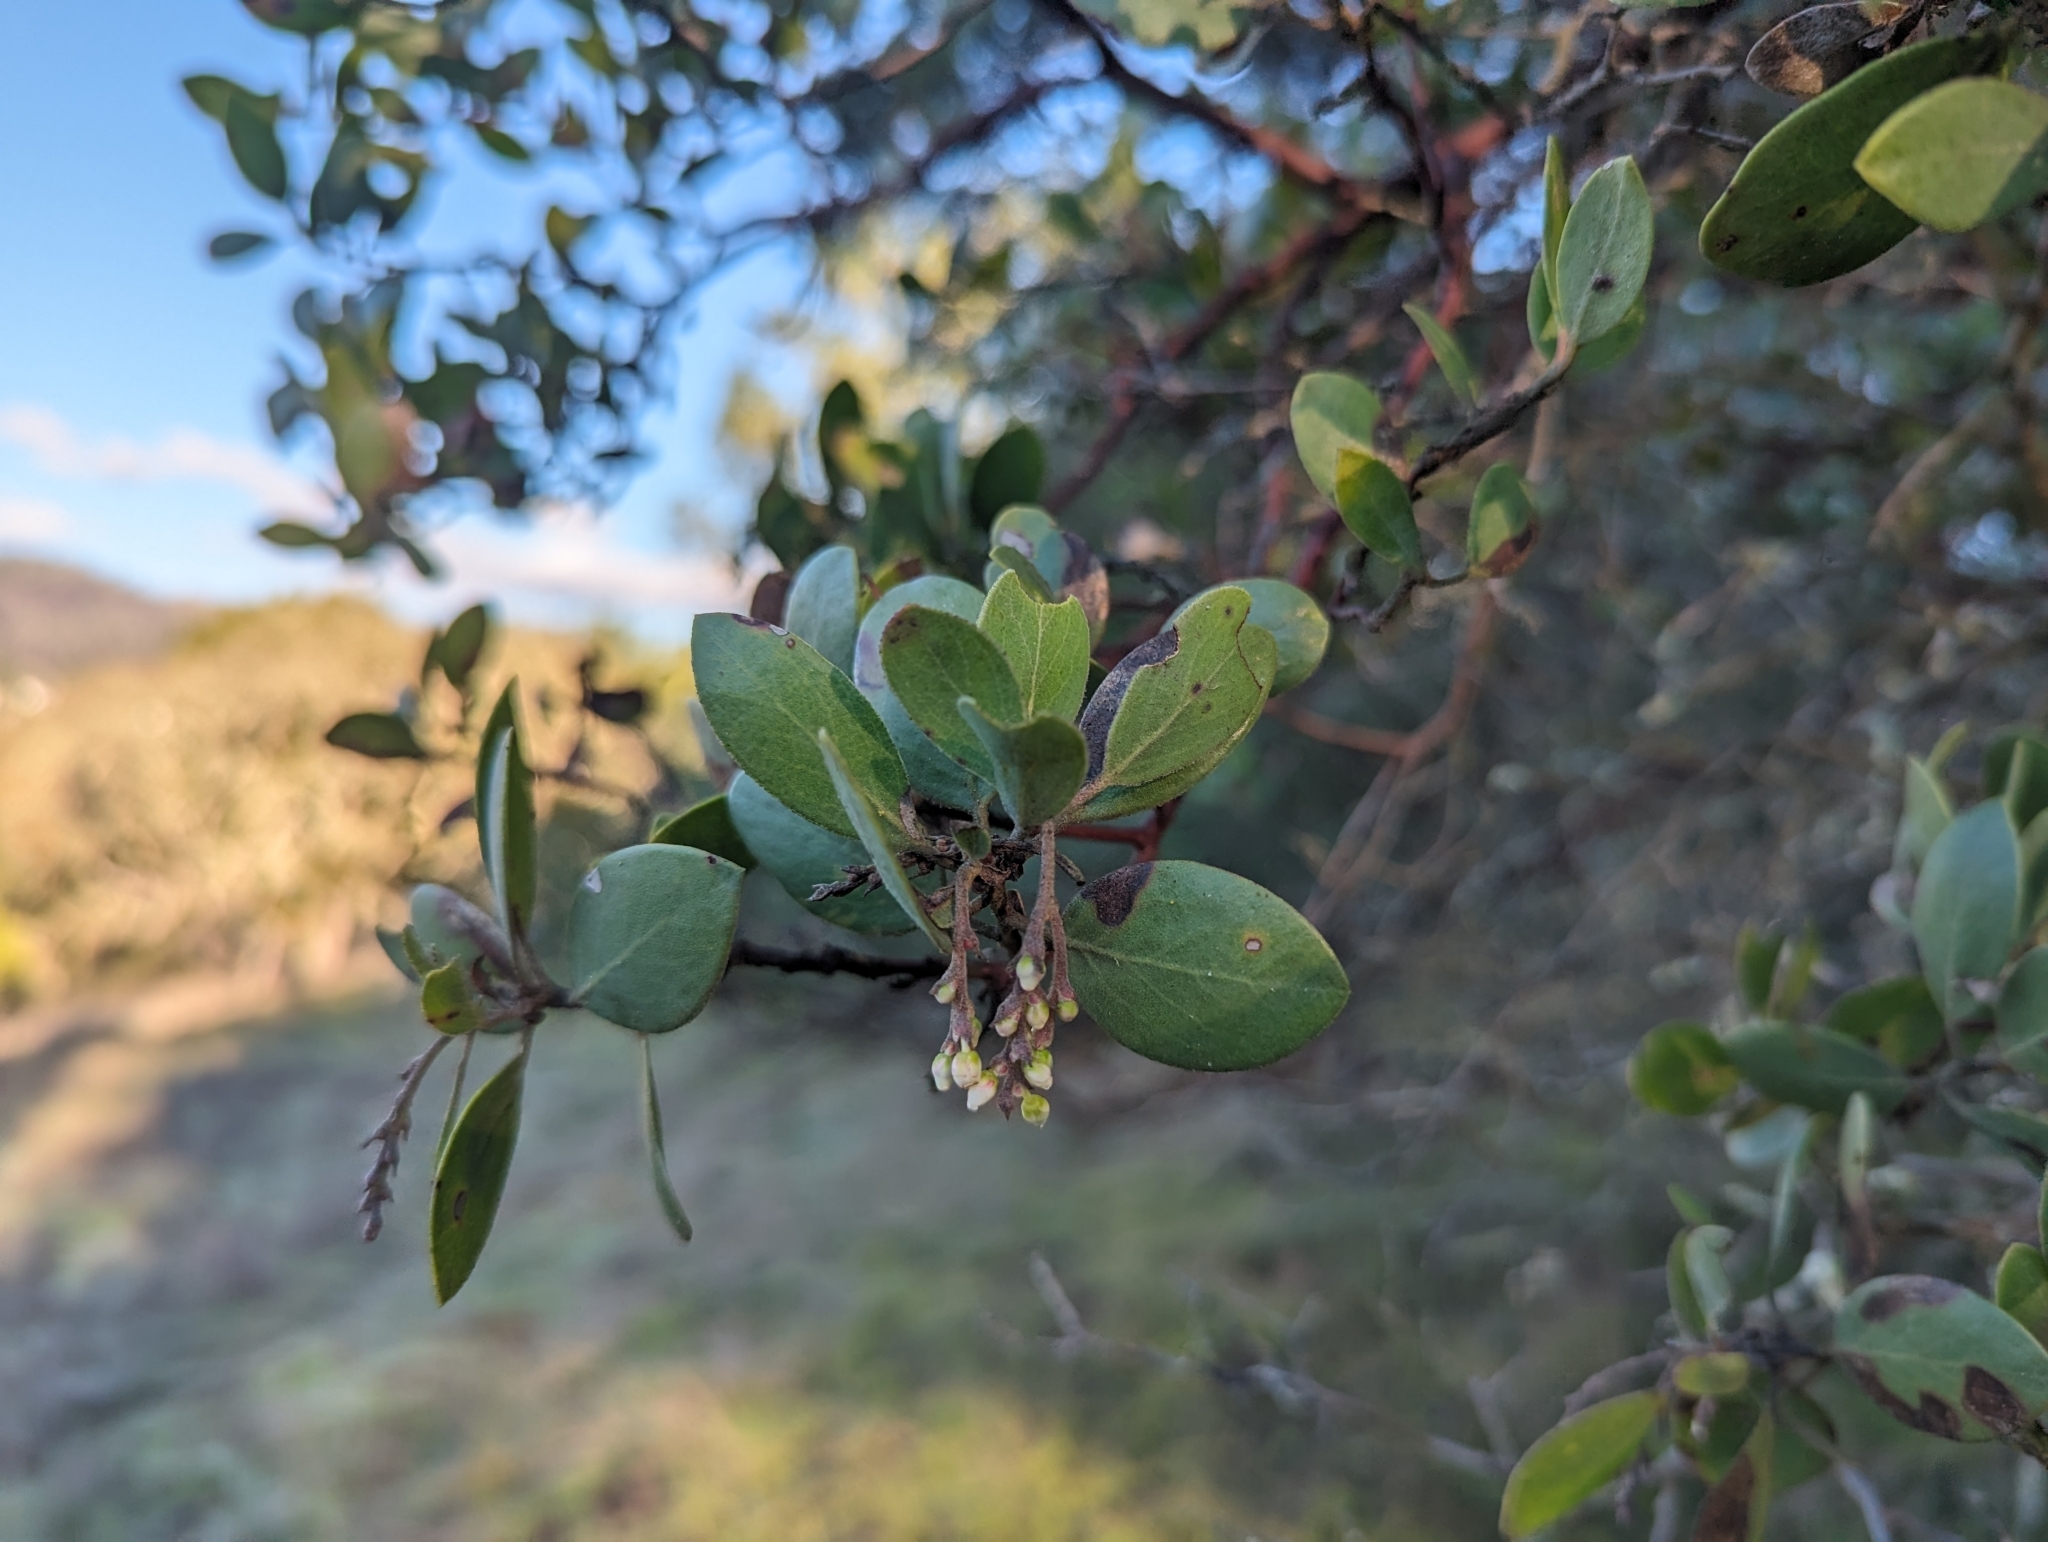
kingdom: Plantae
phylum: Tracheophyta
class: Magnoliopsida
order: Ericales
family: Ericaceae
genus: Arctostaphylos
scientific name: Arctostaphylos manzanita
